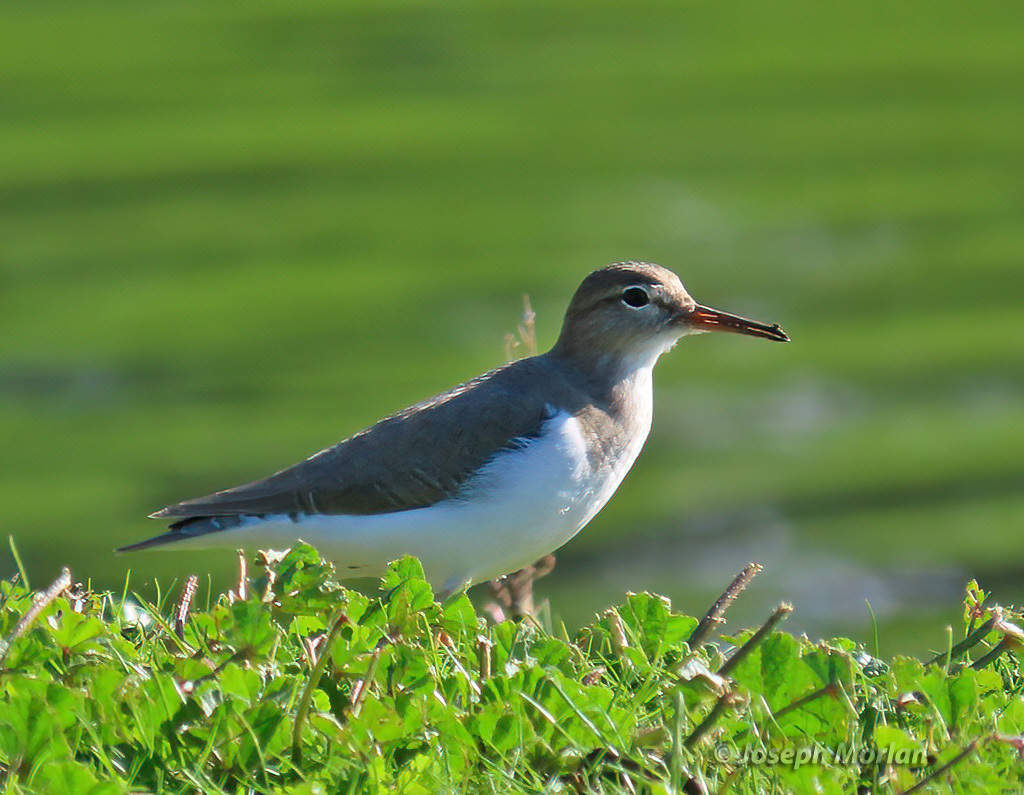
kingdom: Animalia
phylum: Chordata
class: Aves
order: Charadriiformes
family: Scolopacidae
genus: Actitis
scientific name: Actitis macularius
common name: Spotted sandpiper
